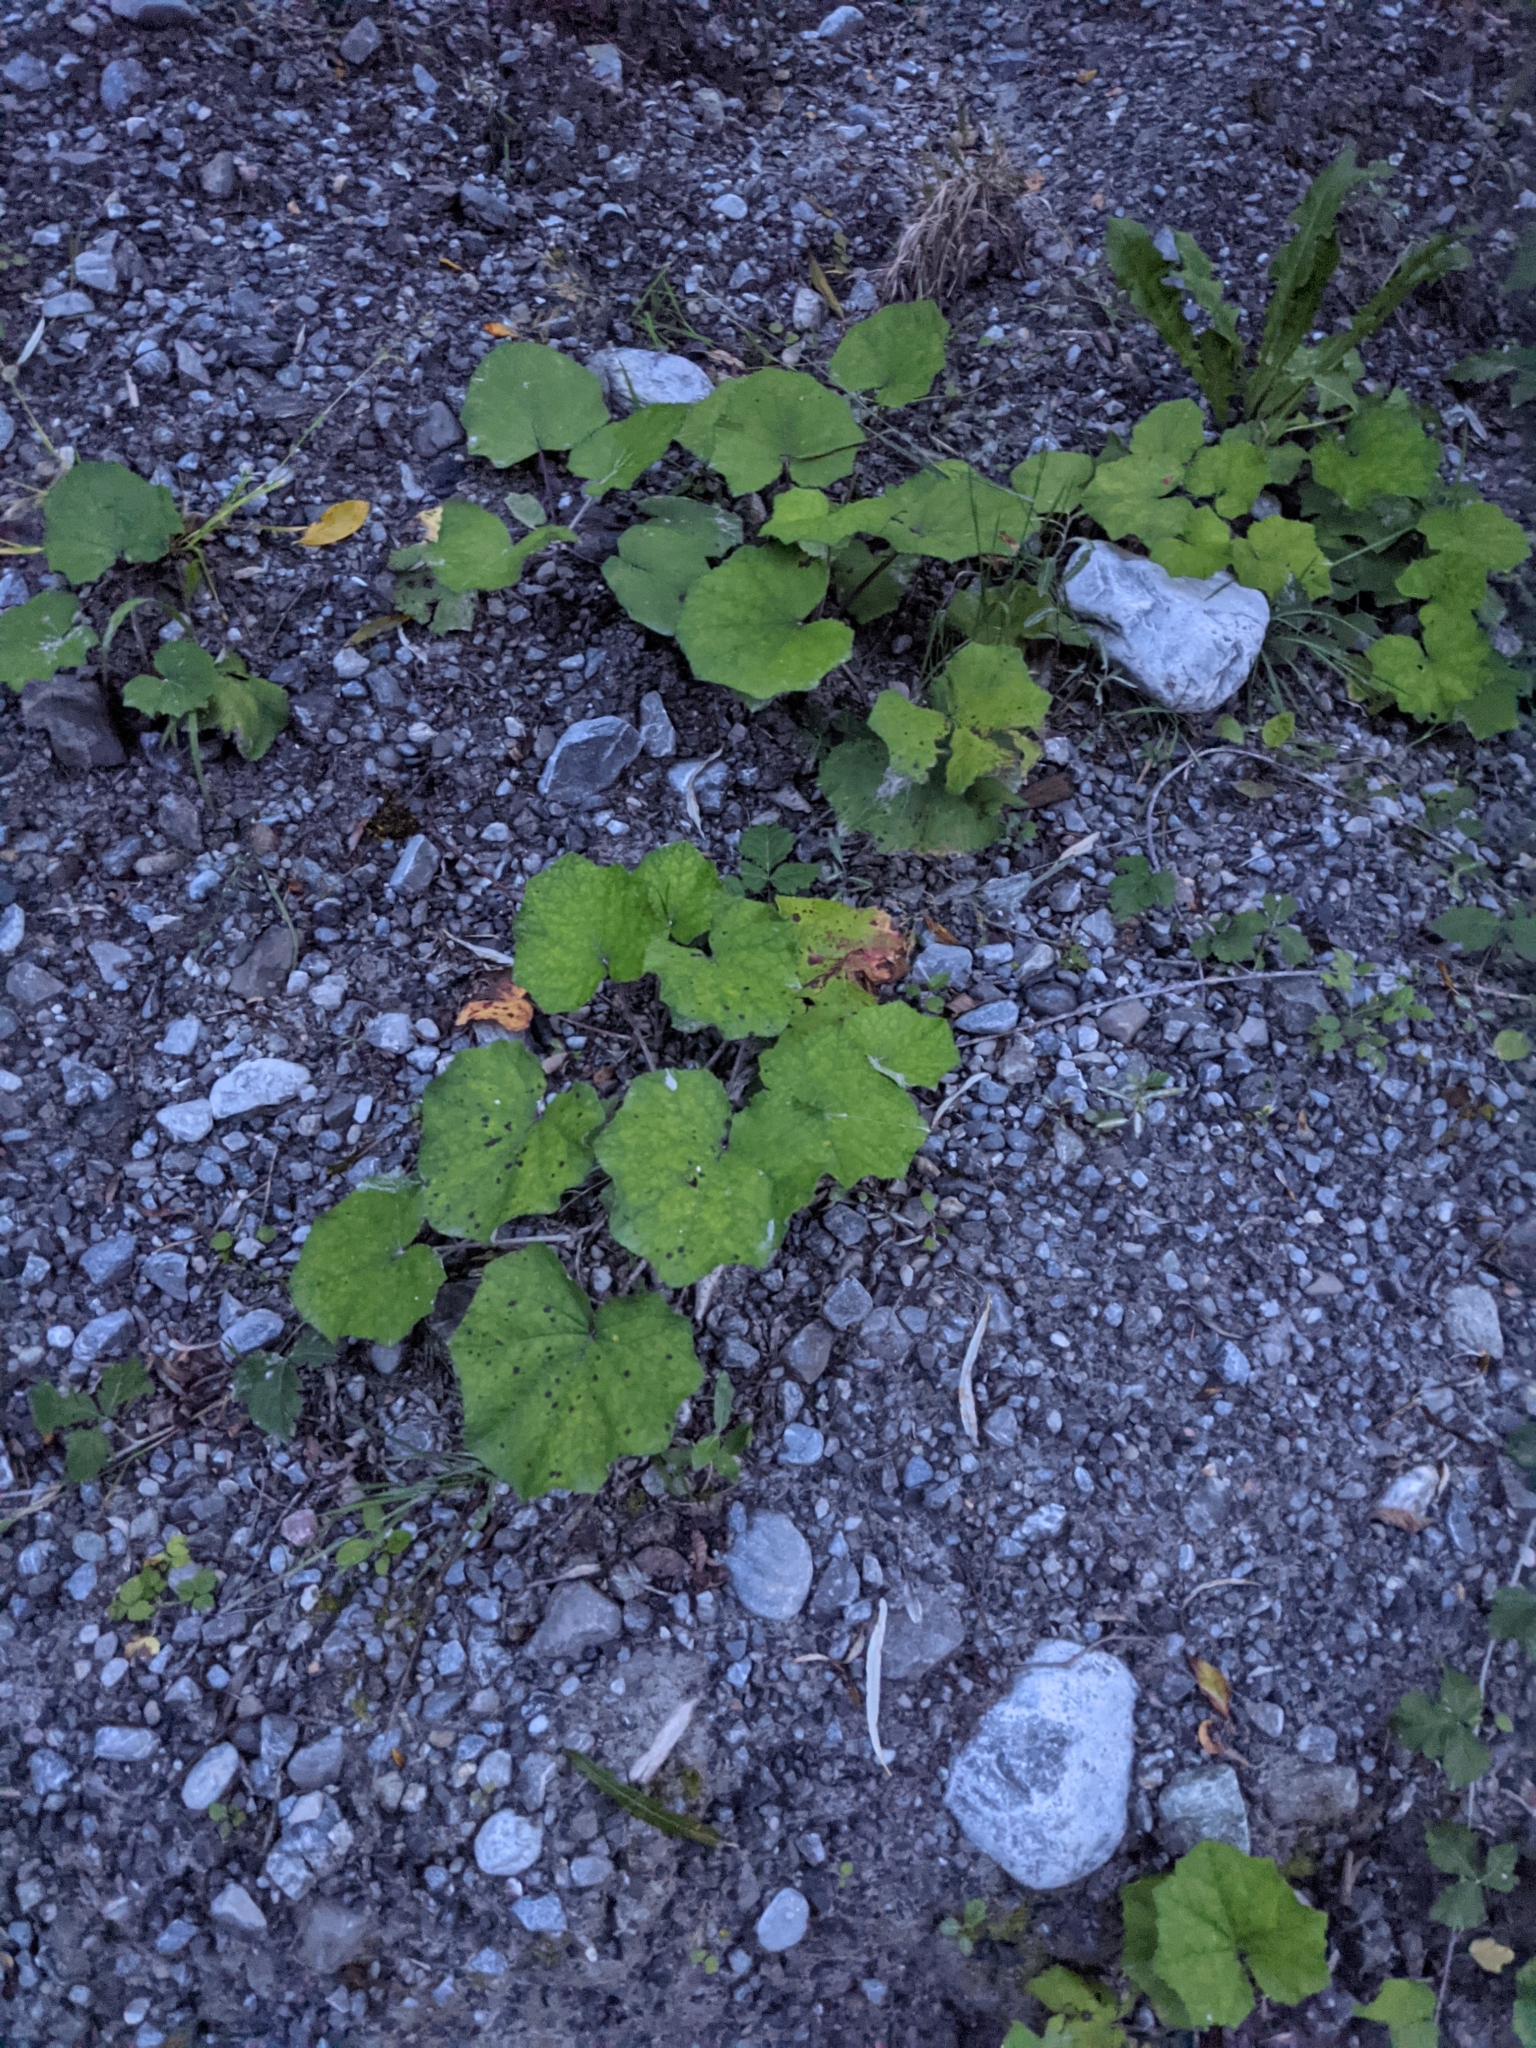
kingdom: Plantae
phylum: Tracheophyta
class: Magnoliopsida
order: Asterales
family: Asteraceae
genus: Tussilago
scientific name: Tussilago farfara
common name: Coltsfoot
